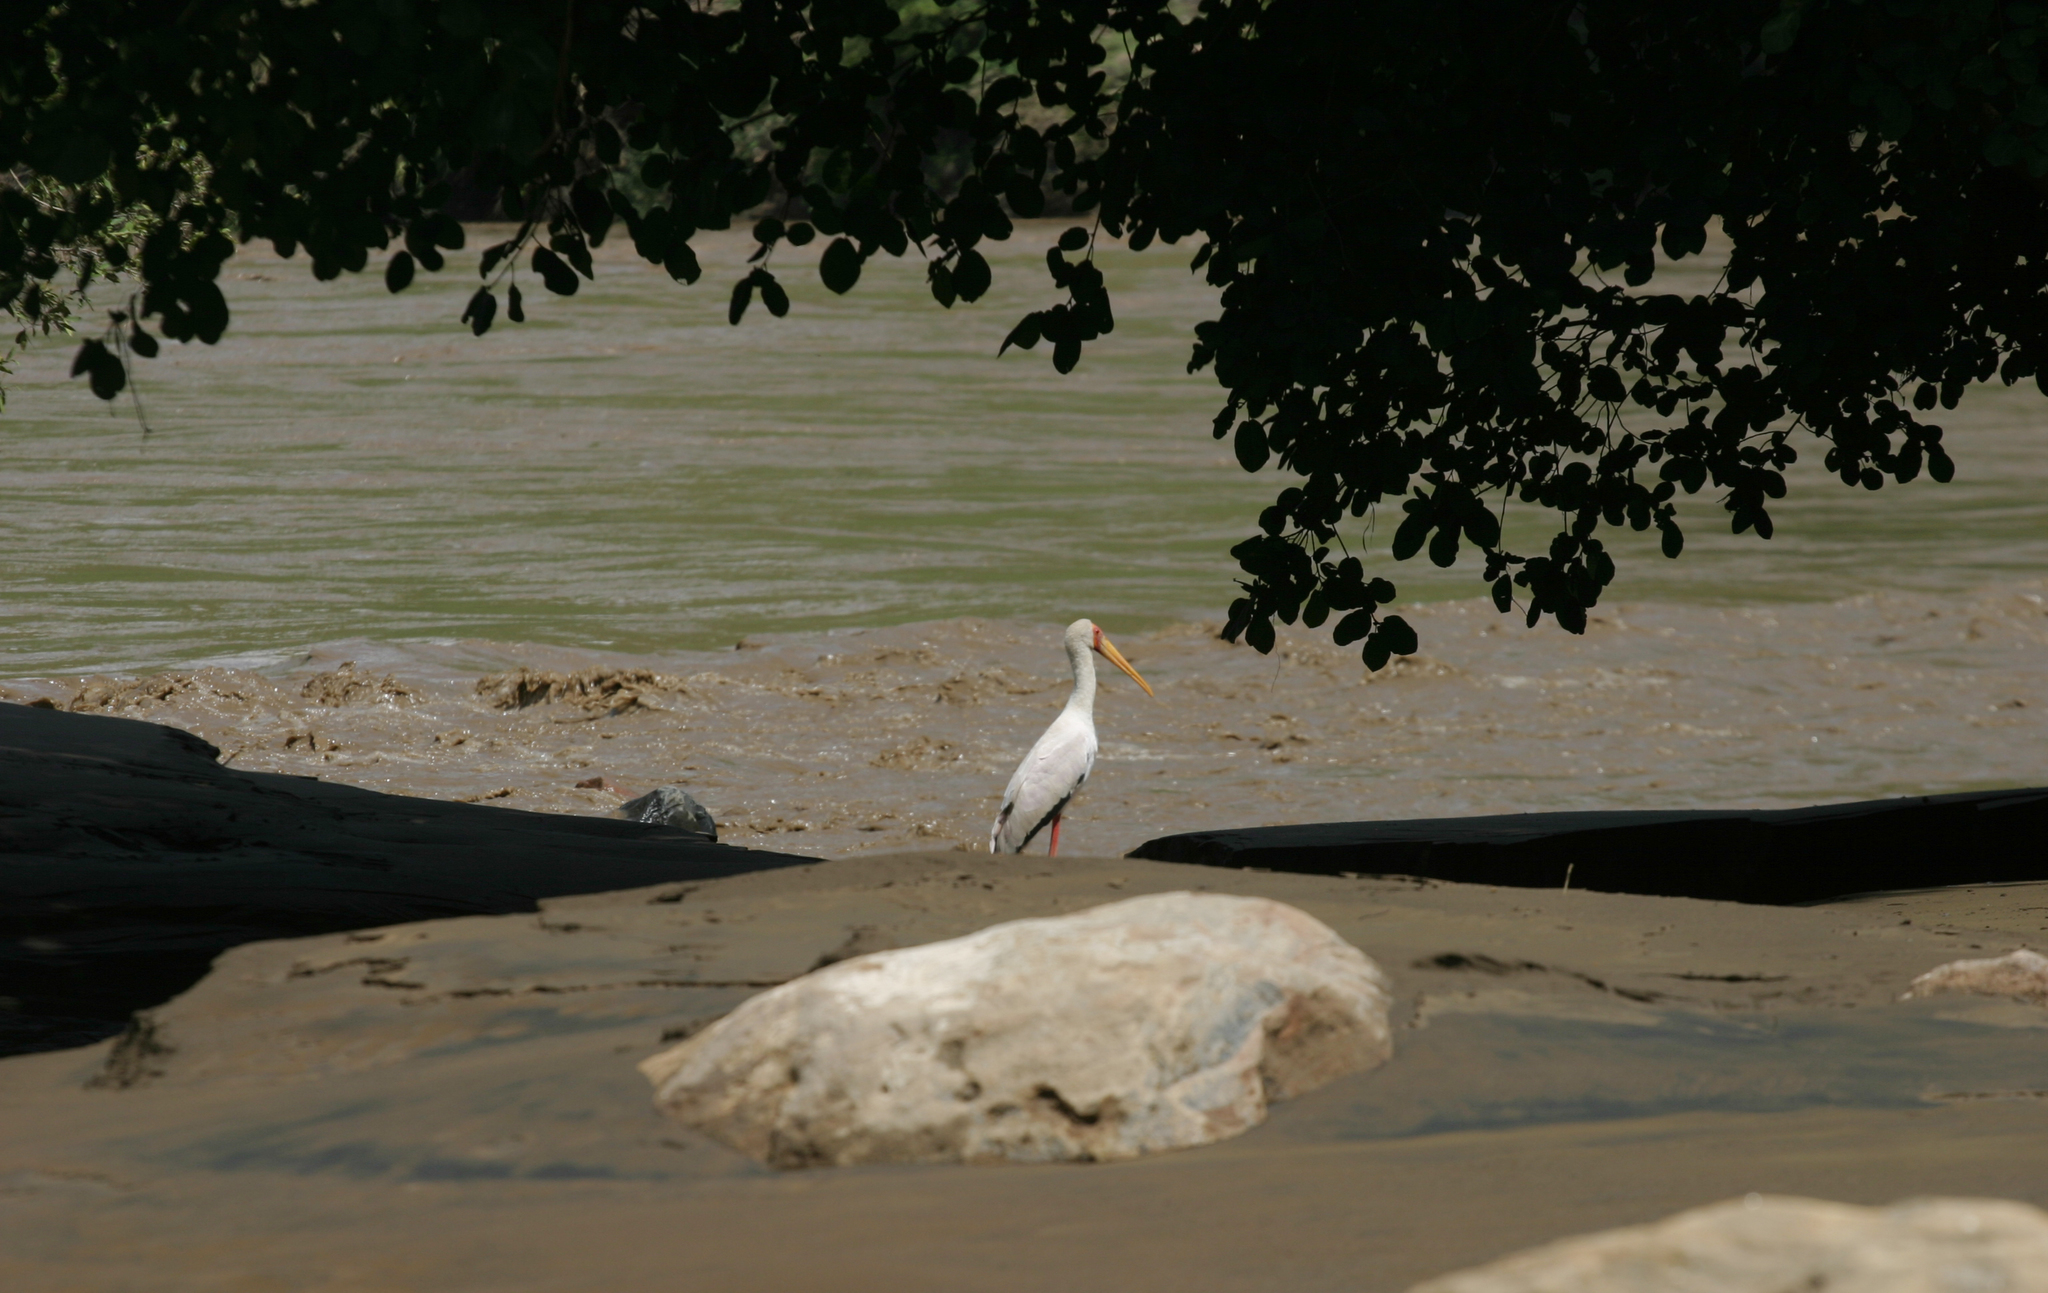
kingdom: Animalia
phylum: Chordata
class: Aves
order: Ciconiiformes
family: Ciconiidae
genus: Mycteria
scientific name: Mycteria ibis
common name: Yellow-billed stork
